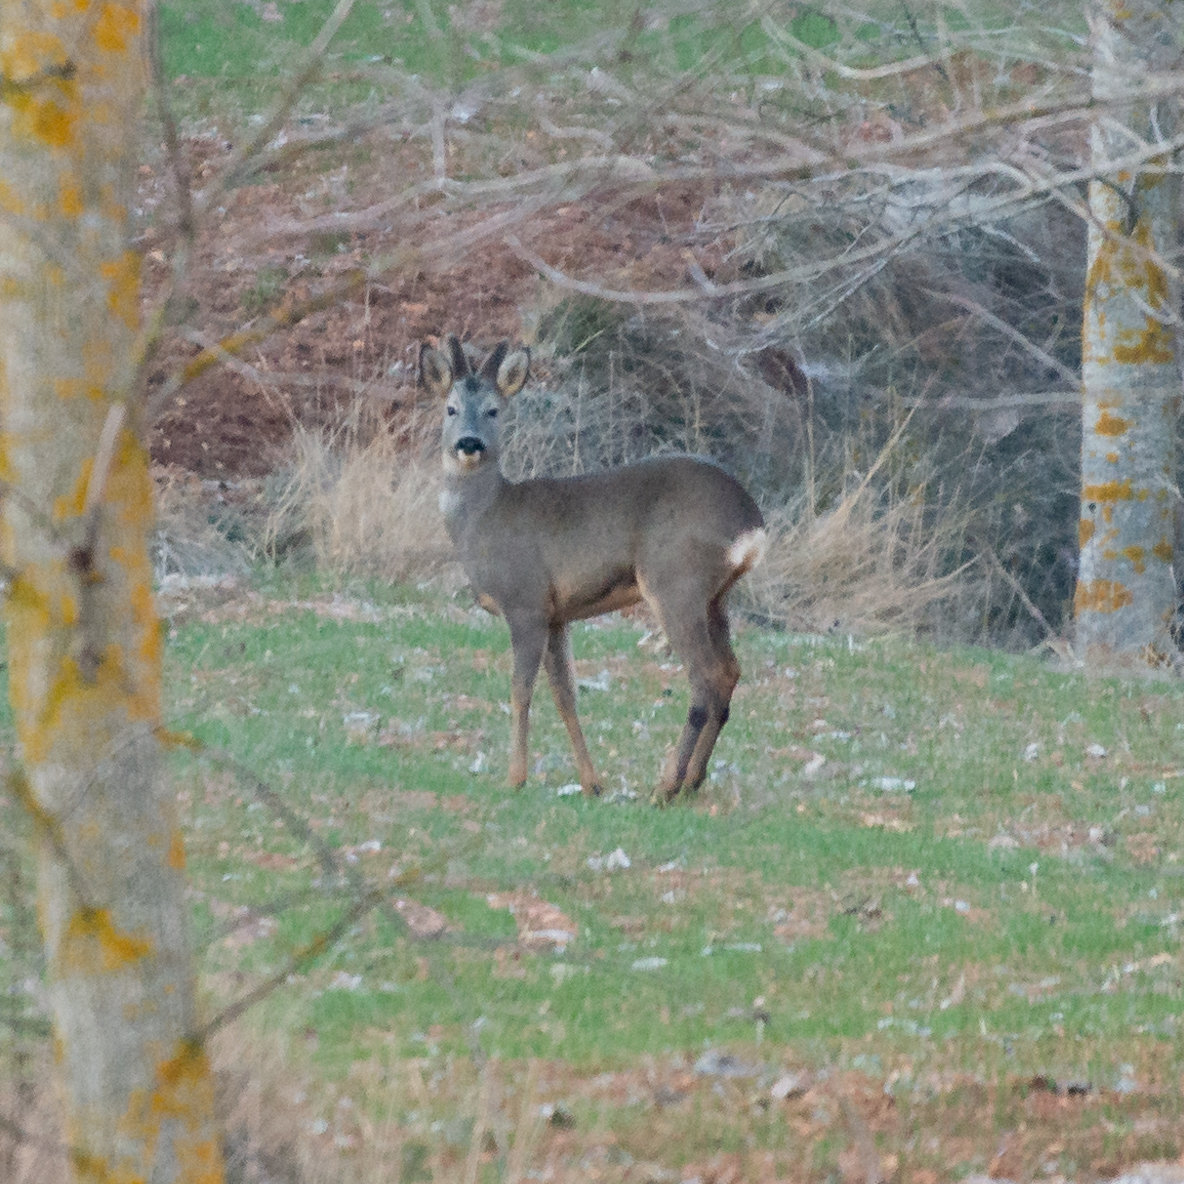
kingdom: Animalia
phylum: Chordata
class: Mammalia
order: Artiodactyla
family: Cervidae
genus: Capreolus
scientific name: Capreolus capreolus
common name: Western roe deer
